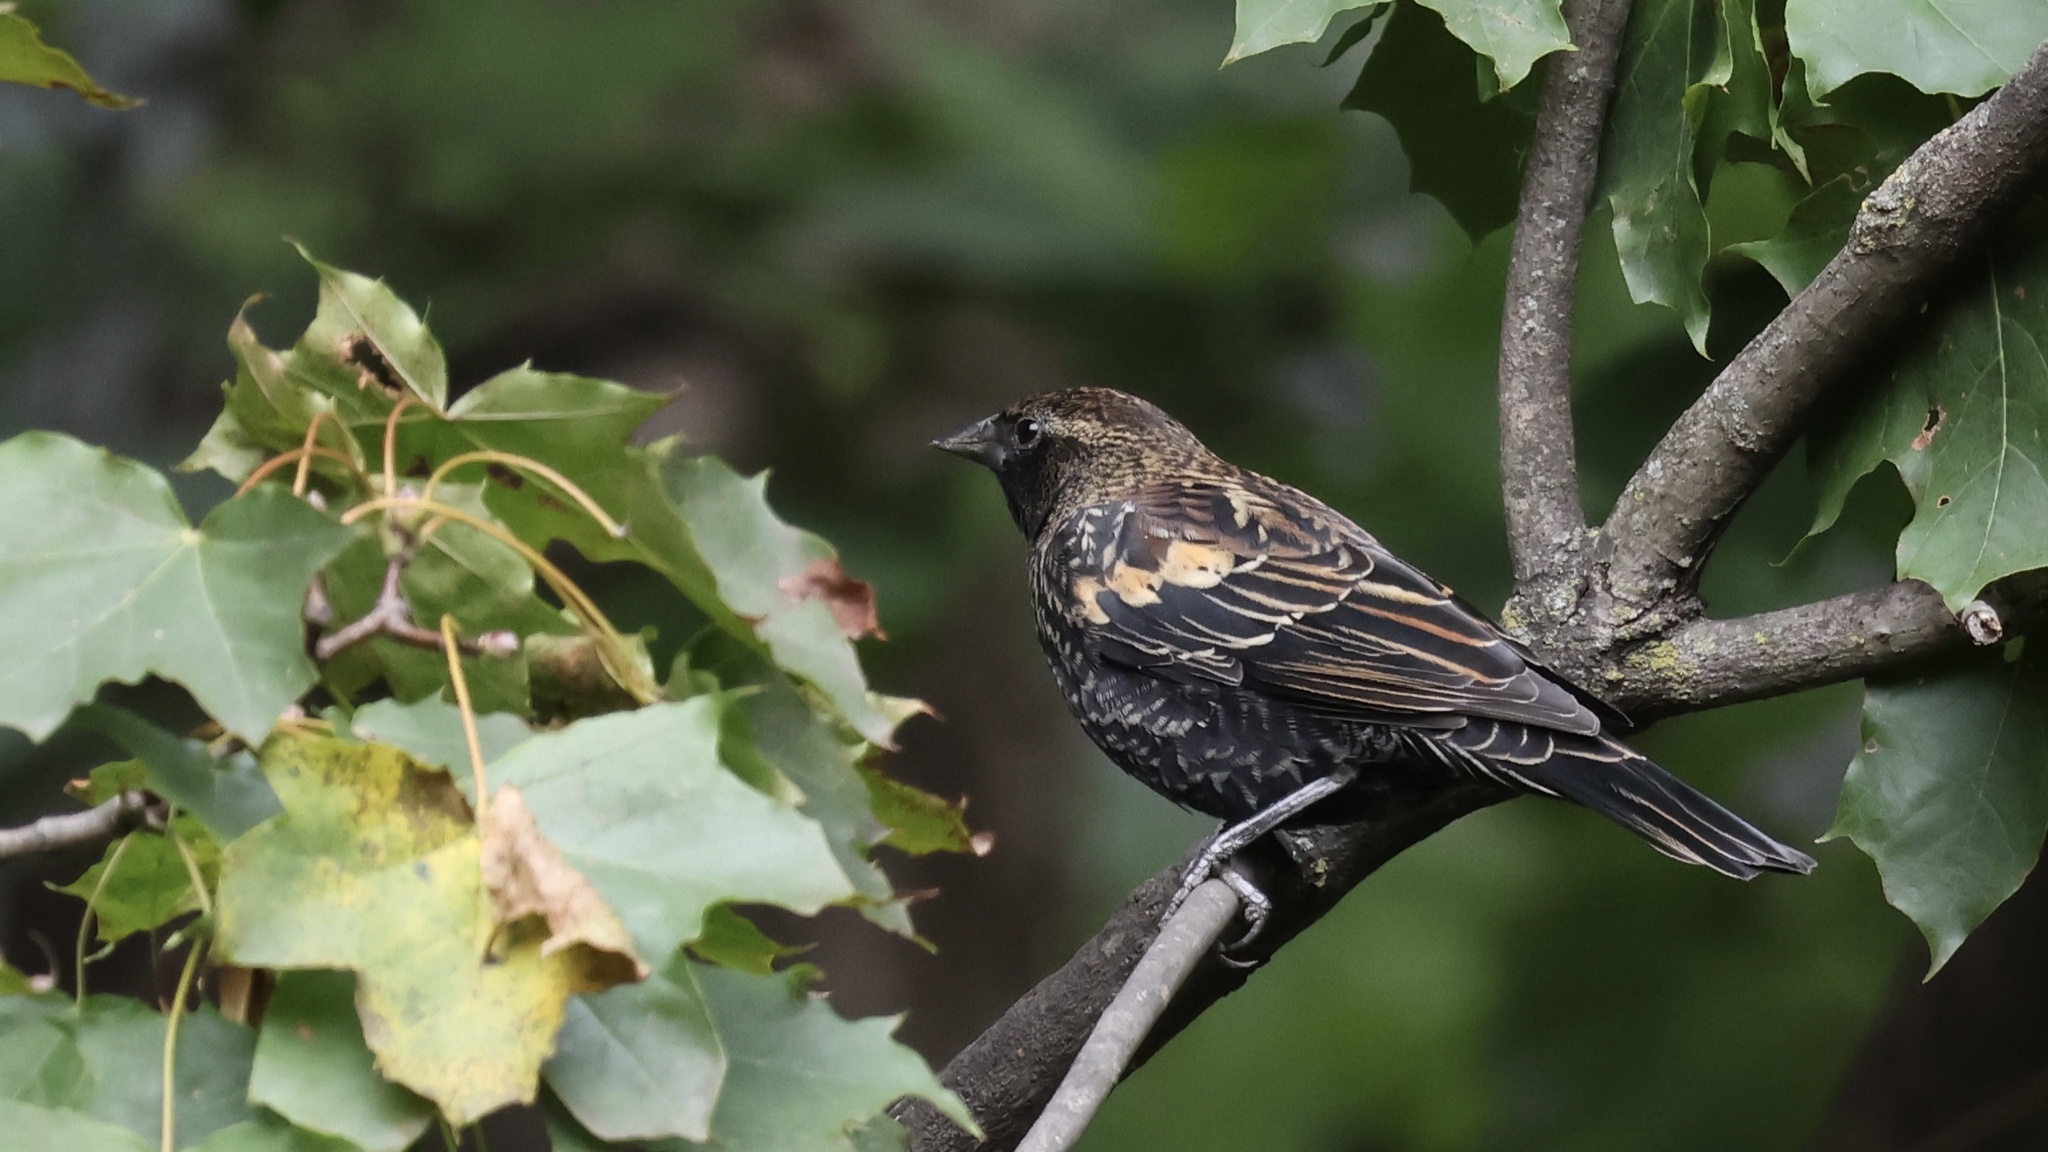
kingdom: Animalia
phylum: Chordata
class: Aves
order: Passeriformes
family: Icteridae
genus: Agelaius
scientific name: Agelaius phoeniceus
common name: Red-winged blackbird
